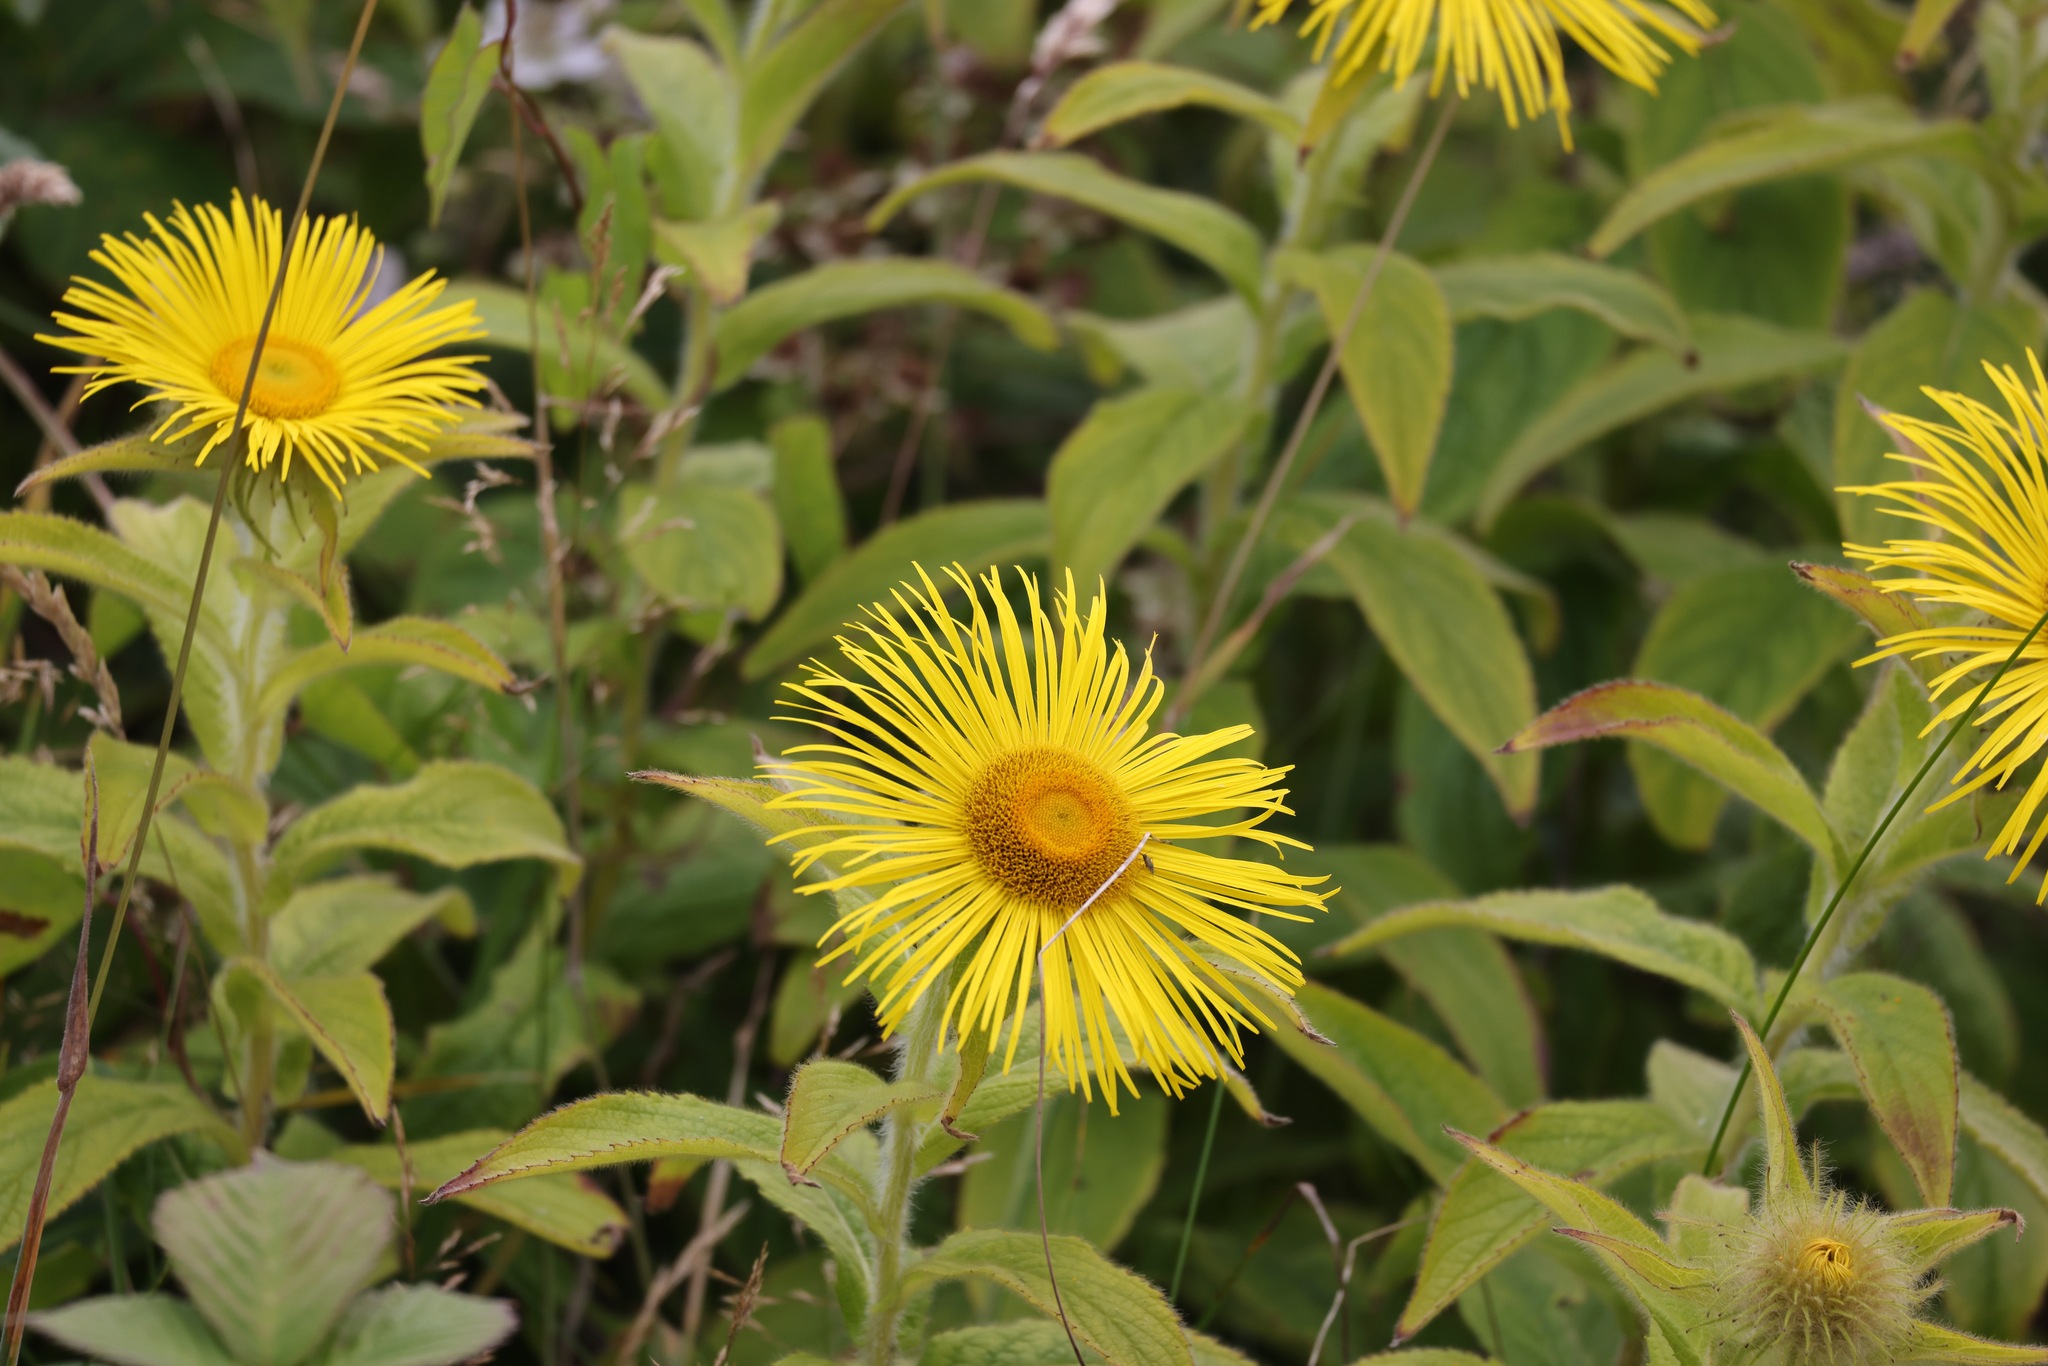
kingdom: Plantae
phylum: Tracheophyta
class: Magnoliopsida
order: Asterales
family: Asteraceae
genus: Inula
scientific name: Inula hookeri
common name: Hooker's-fleabane
